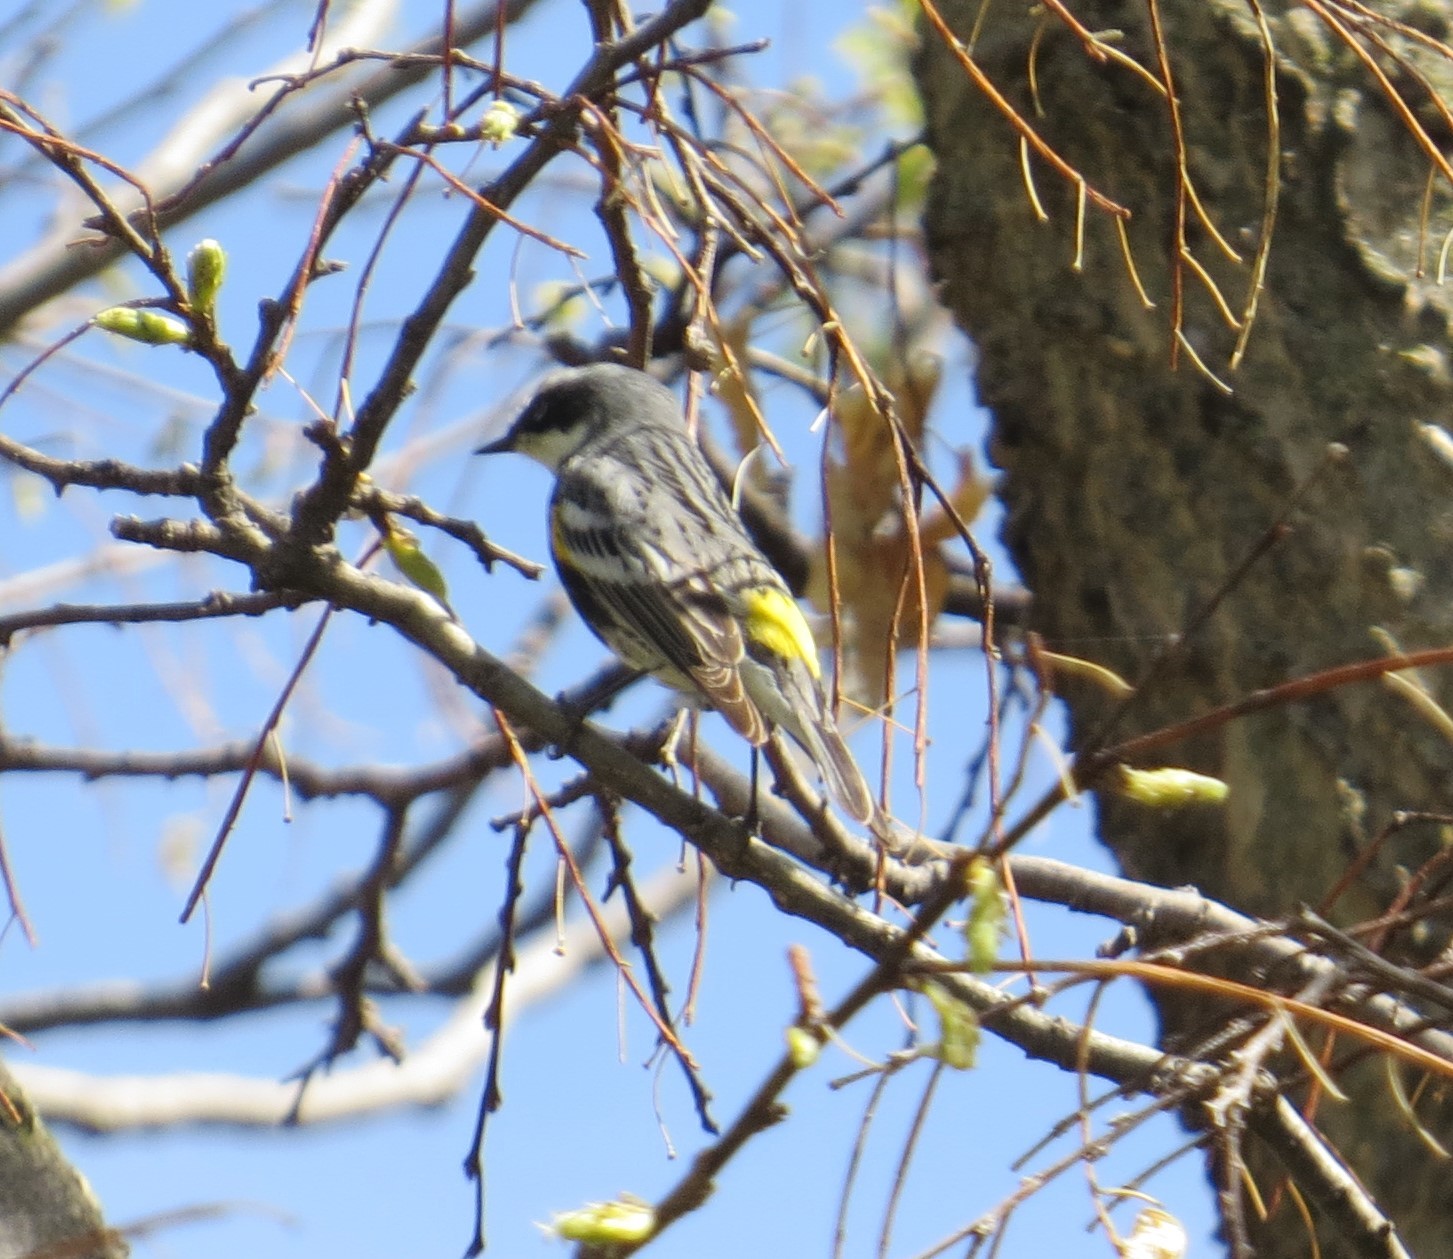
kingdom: Animalia
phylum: Chordata
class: Aves
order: Passeriformes
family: Parulidae
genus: Setophaga
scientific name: Setophaga coronata
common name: Myrtle warbler
